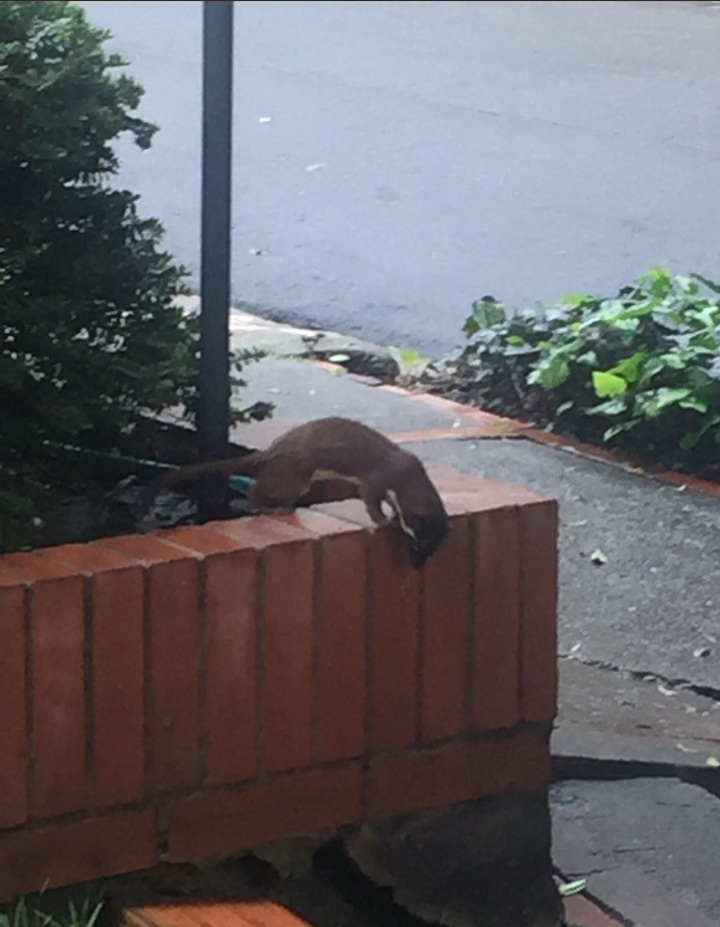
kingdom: Animalia
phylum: Chordata
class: Mammalia
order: Carnivora
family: Mustelidae
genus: Mustela
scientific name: Mustela
